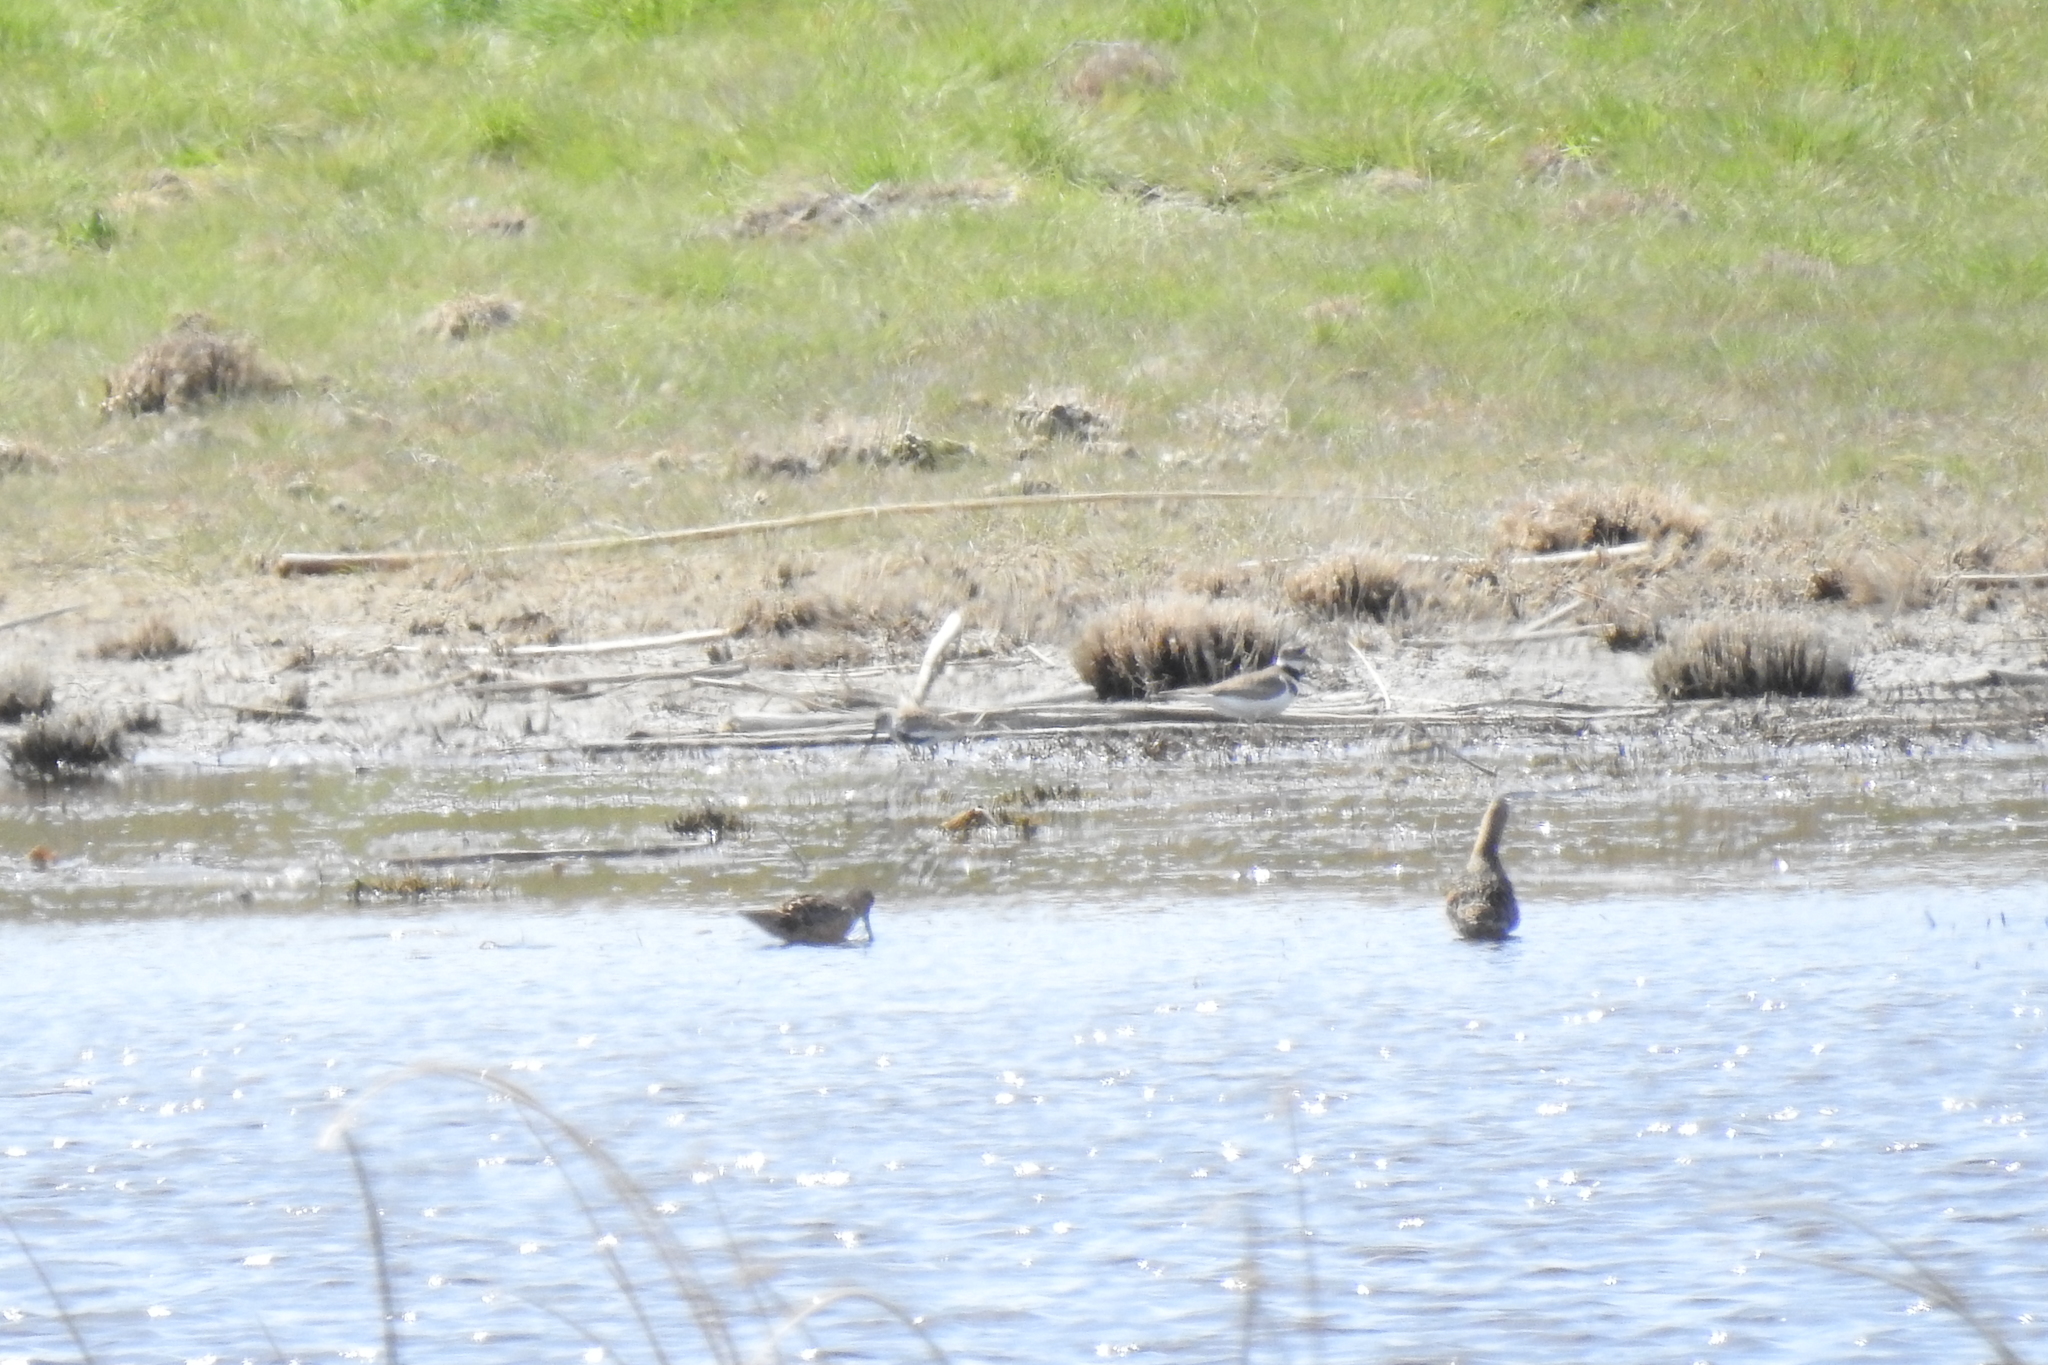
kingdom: Animalia
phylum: Chordata
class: Aves
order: Charadriiformes
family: Scolopacidae
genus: Limnodromus
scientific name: Limnodromus scolopaceus
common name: Long-billed dowitcher
